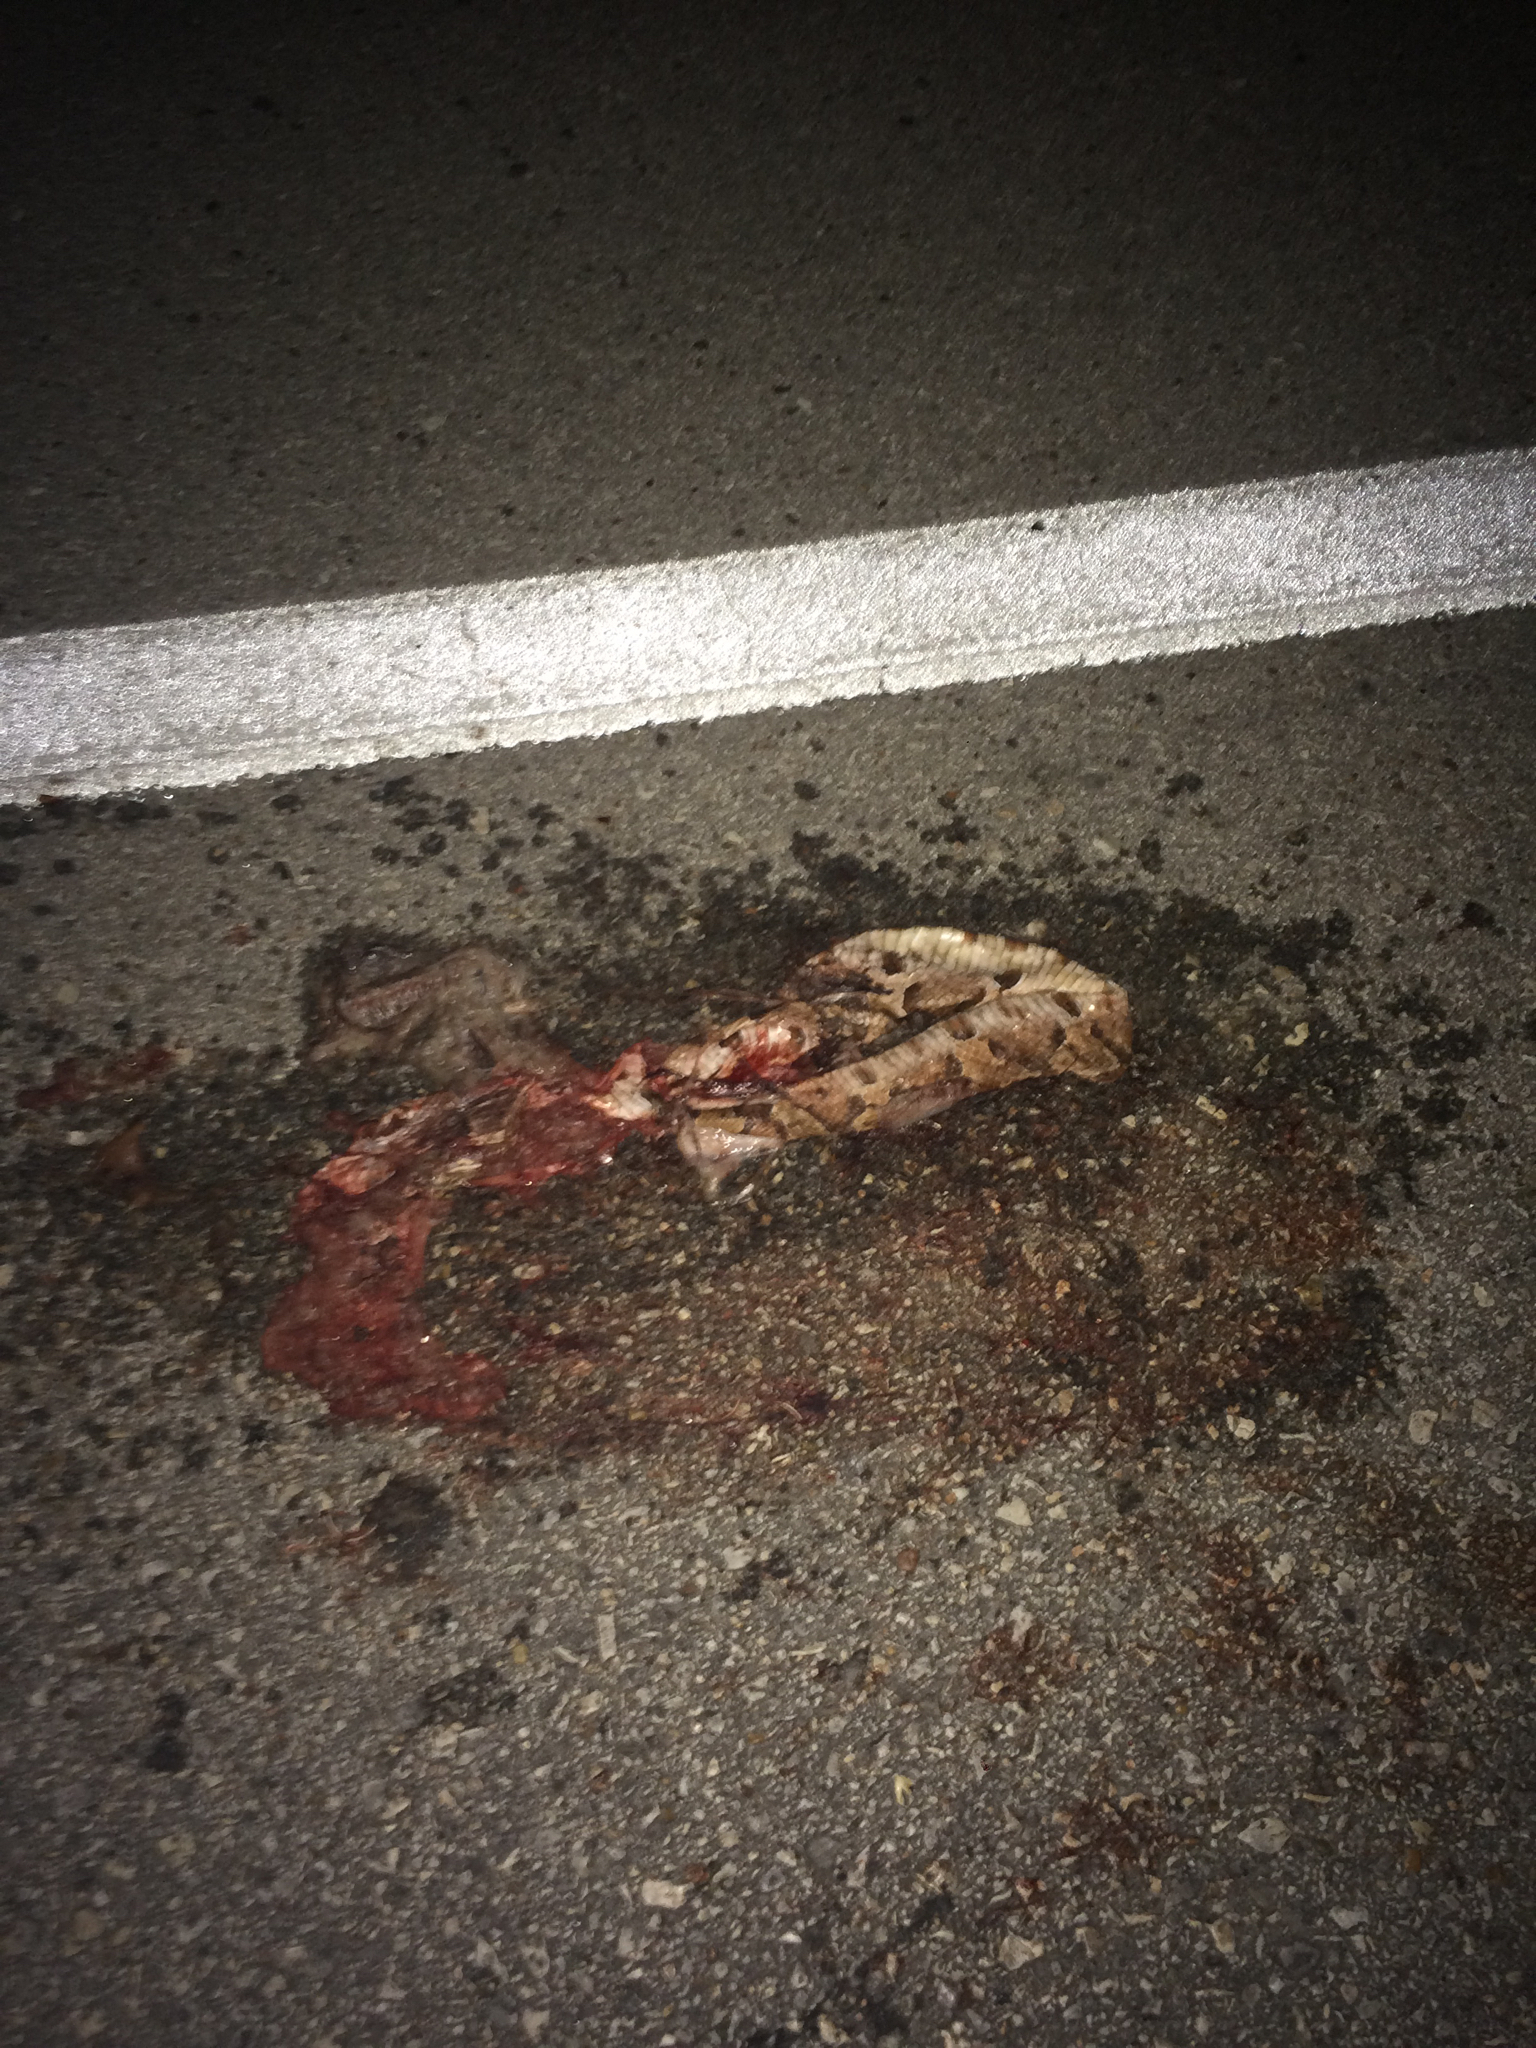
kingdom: Animalia
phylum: Chordata
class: Squamata
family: Viperidae
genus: Agkistrodon
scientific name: Agkistrodon contortrix
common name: Northern copperhead
